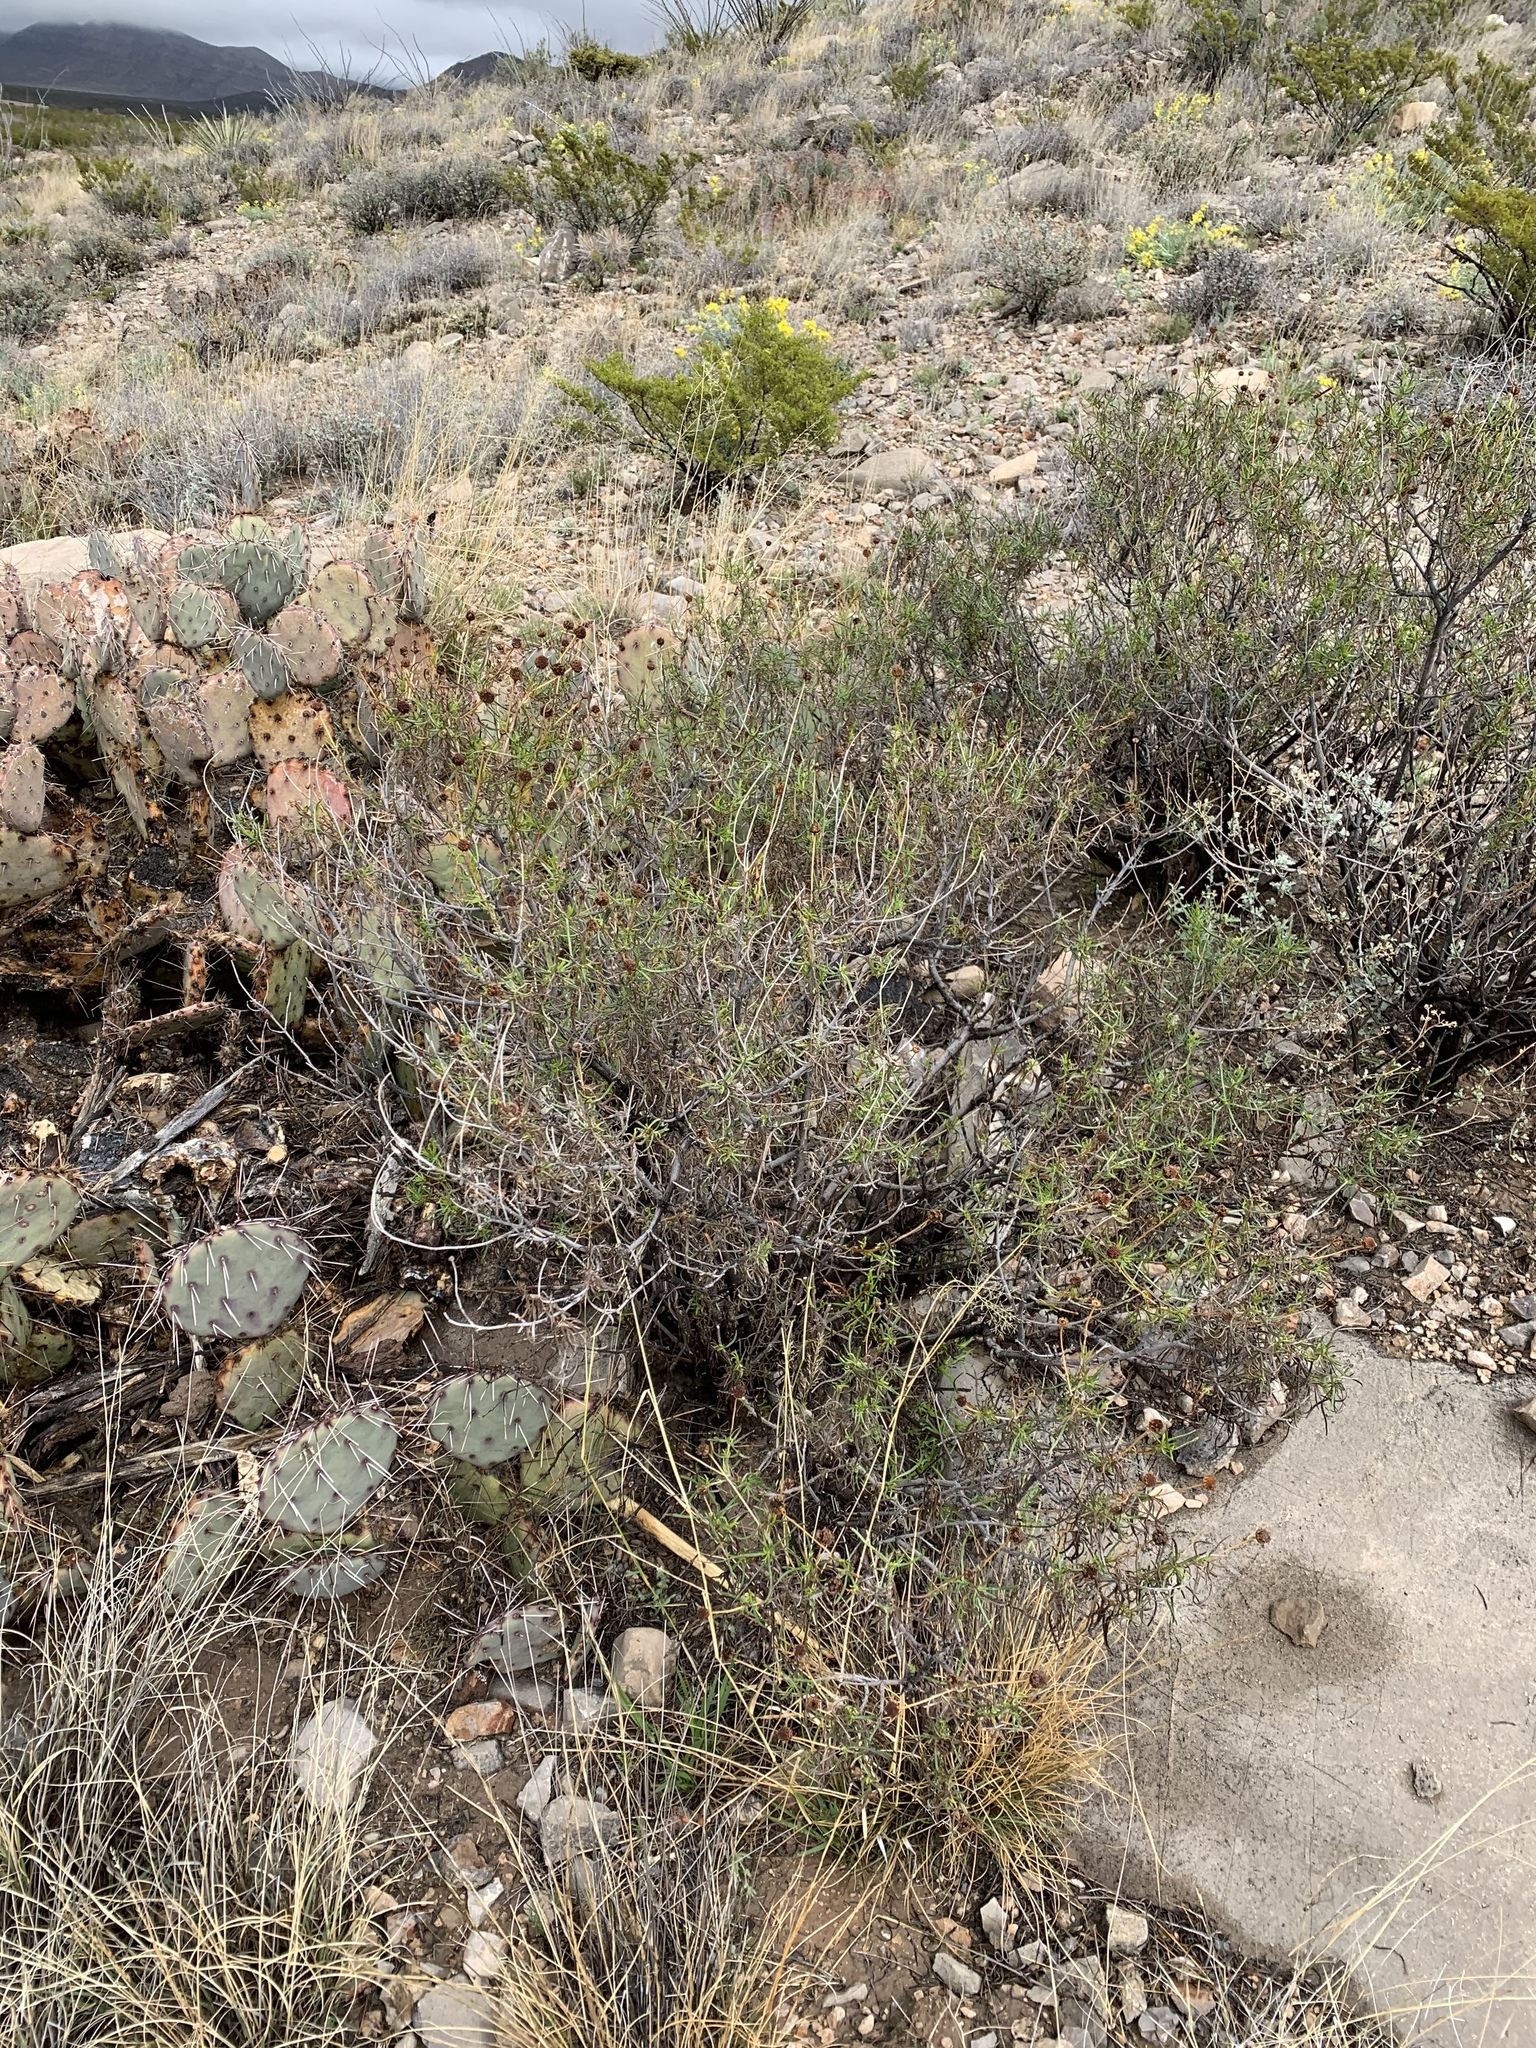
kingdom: Plantae
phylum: Tracheophyta
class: Magnoliopsida
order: Asterales
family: Asteraceae
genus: Sidneya
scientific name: Sidneya tenuifolia
